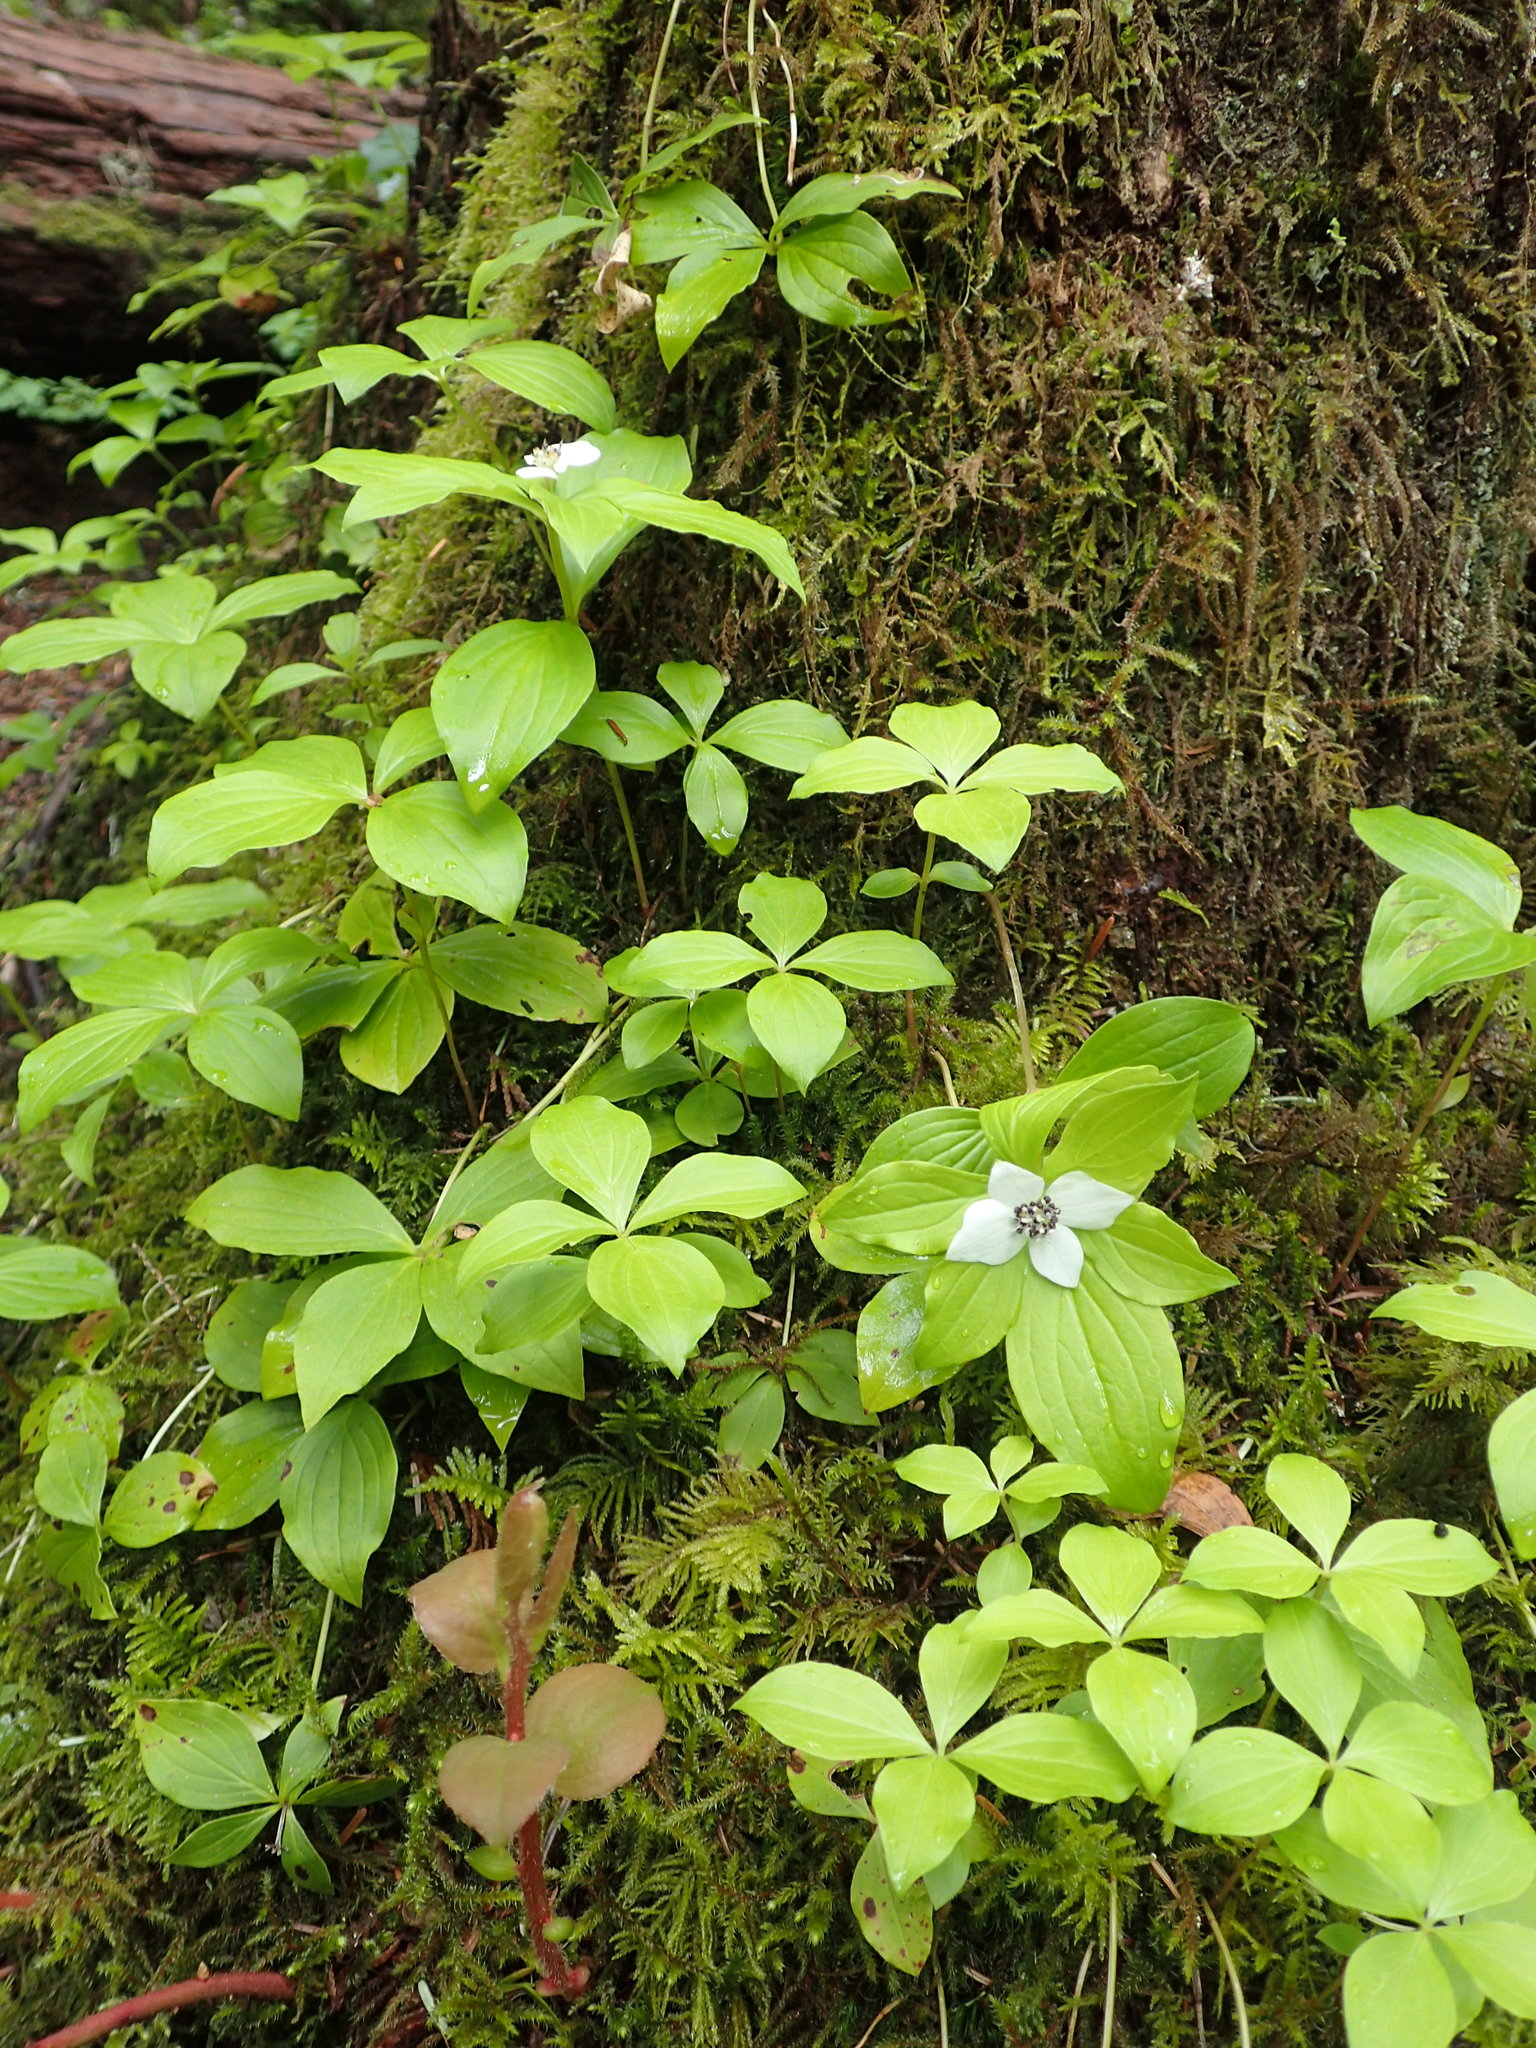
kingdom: Plantae
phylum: Tracheophyta
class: Magnoliopsida
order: Cornales
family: Cornaceae
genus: Cornus
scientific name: Cornus unalaschkensis
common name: Alaska bunchberry
